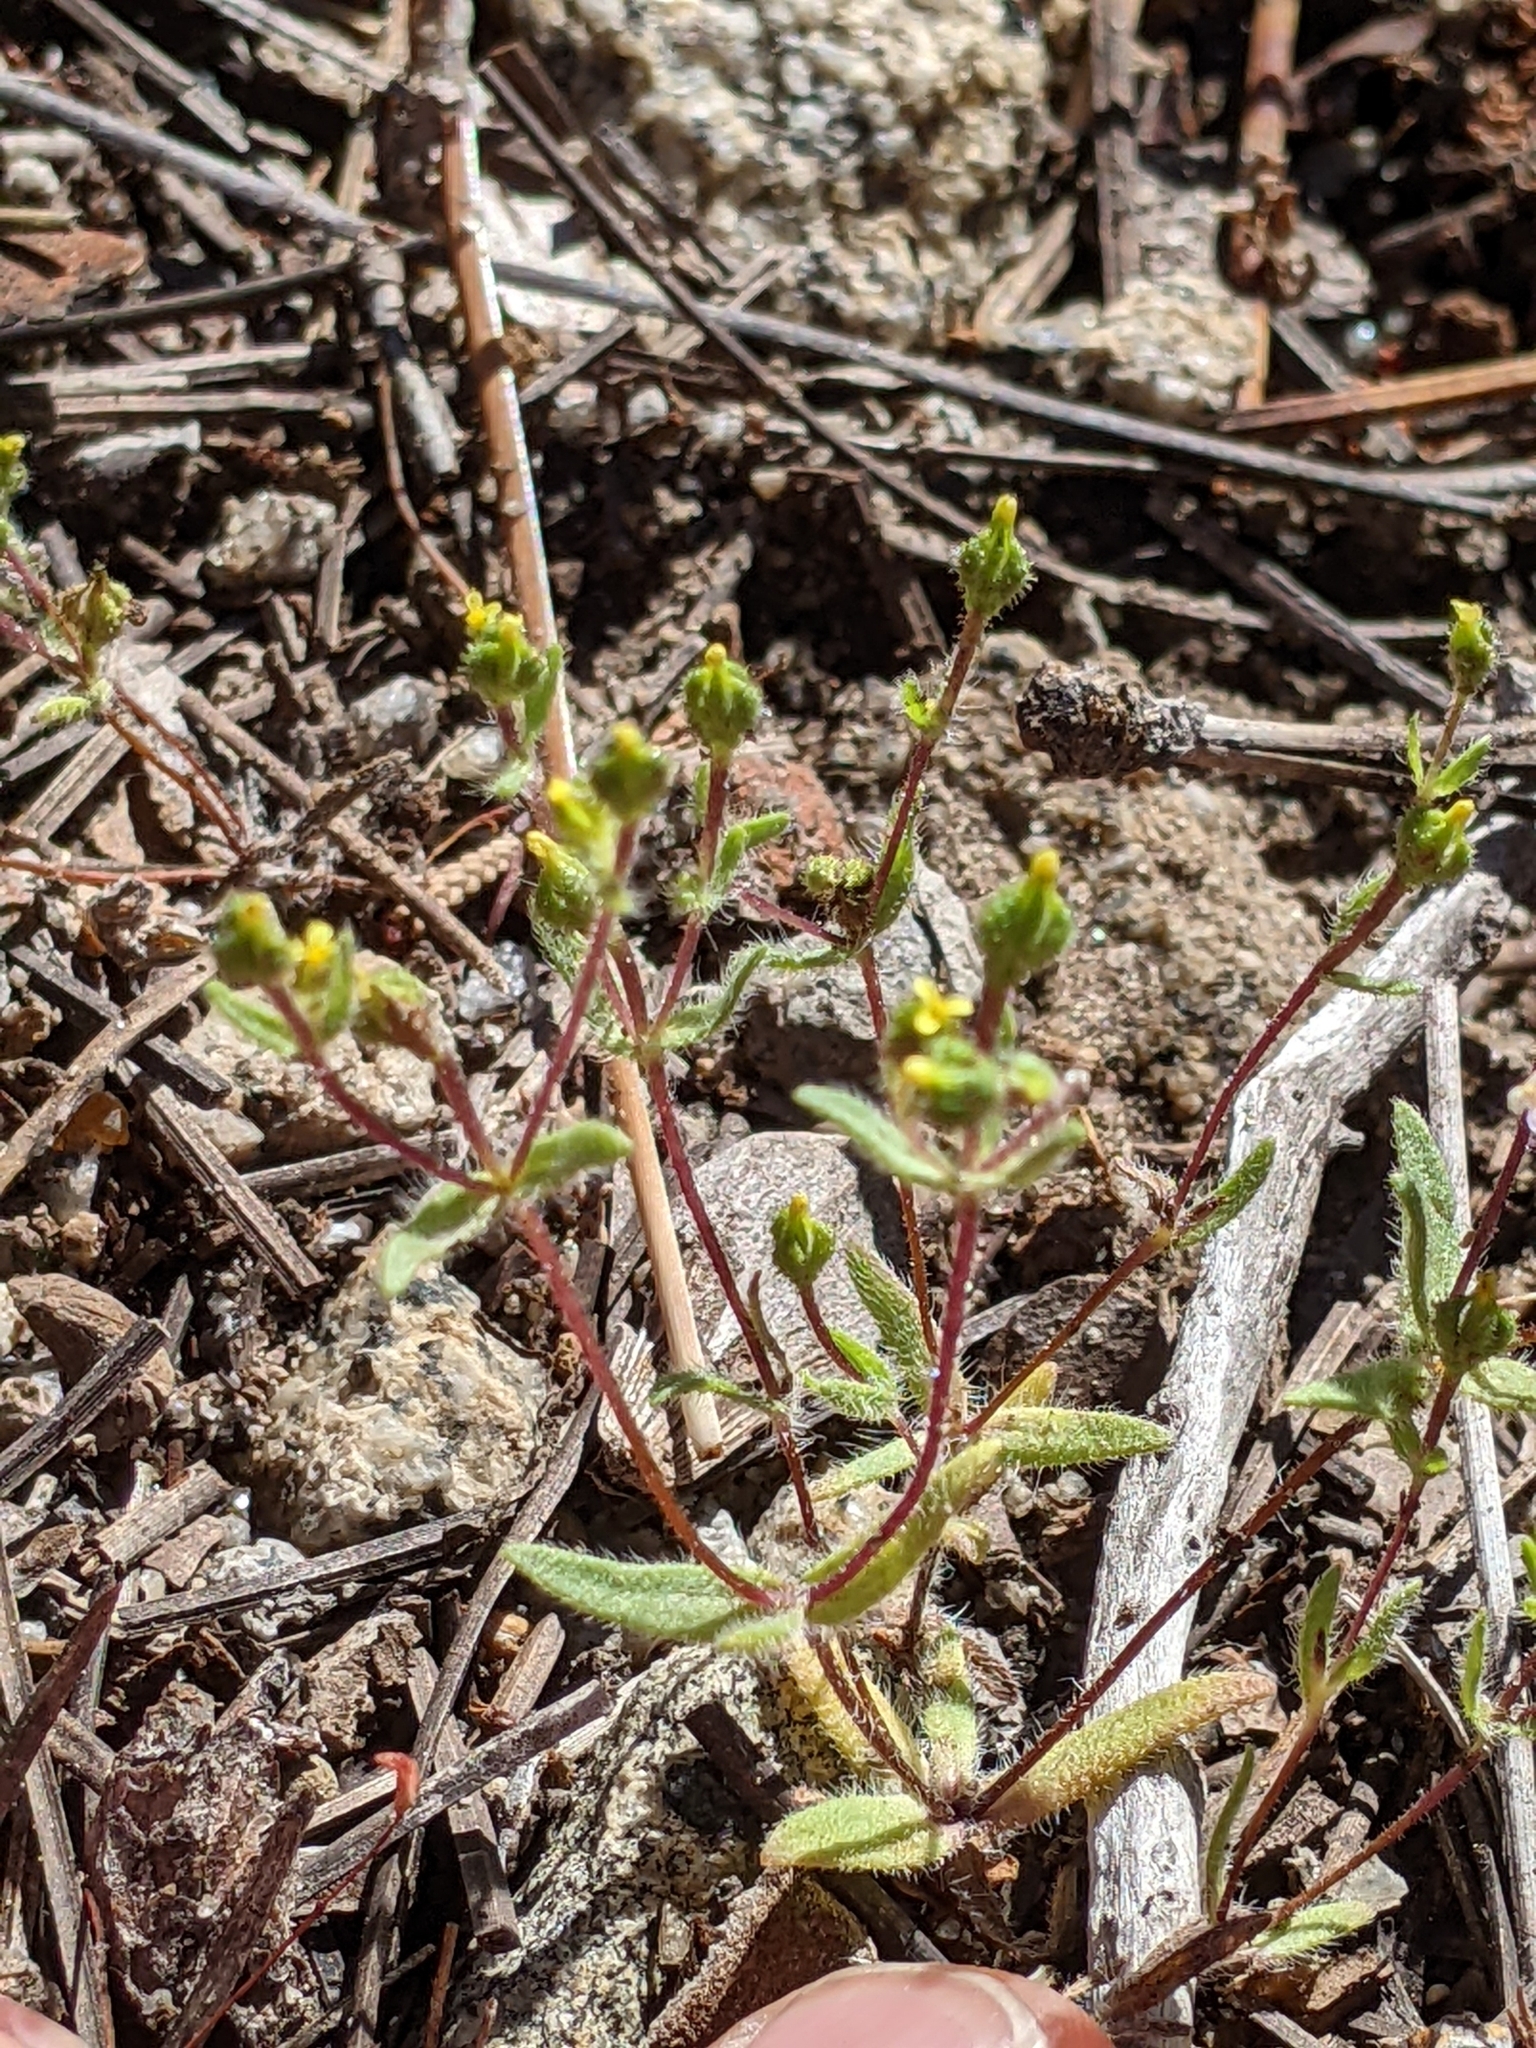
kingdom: Plantae
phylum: Tracheophyta
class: Magnoliopsida
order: Asterales
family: Asteraceae
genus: Hemizonella
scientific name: Hemizonella minima
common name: Opposite-leaved tarweed
